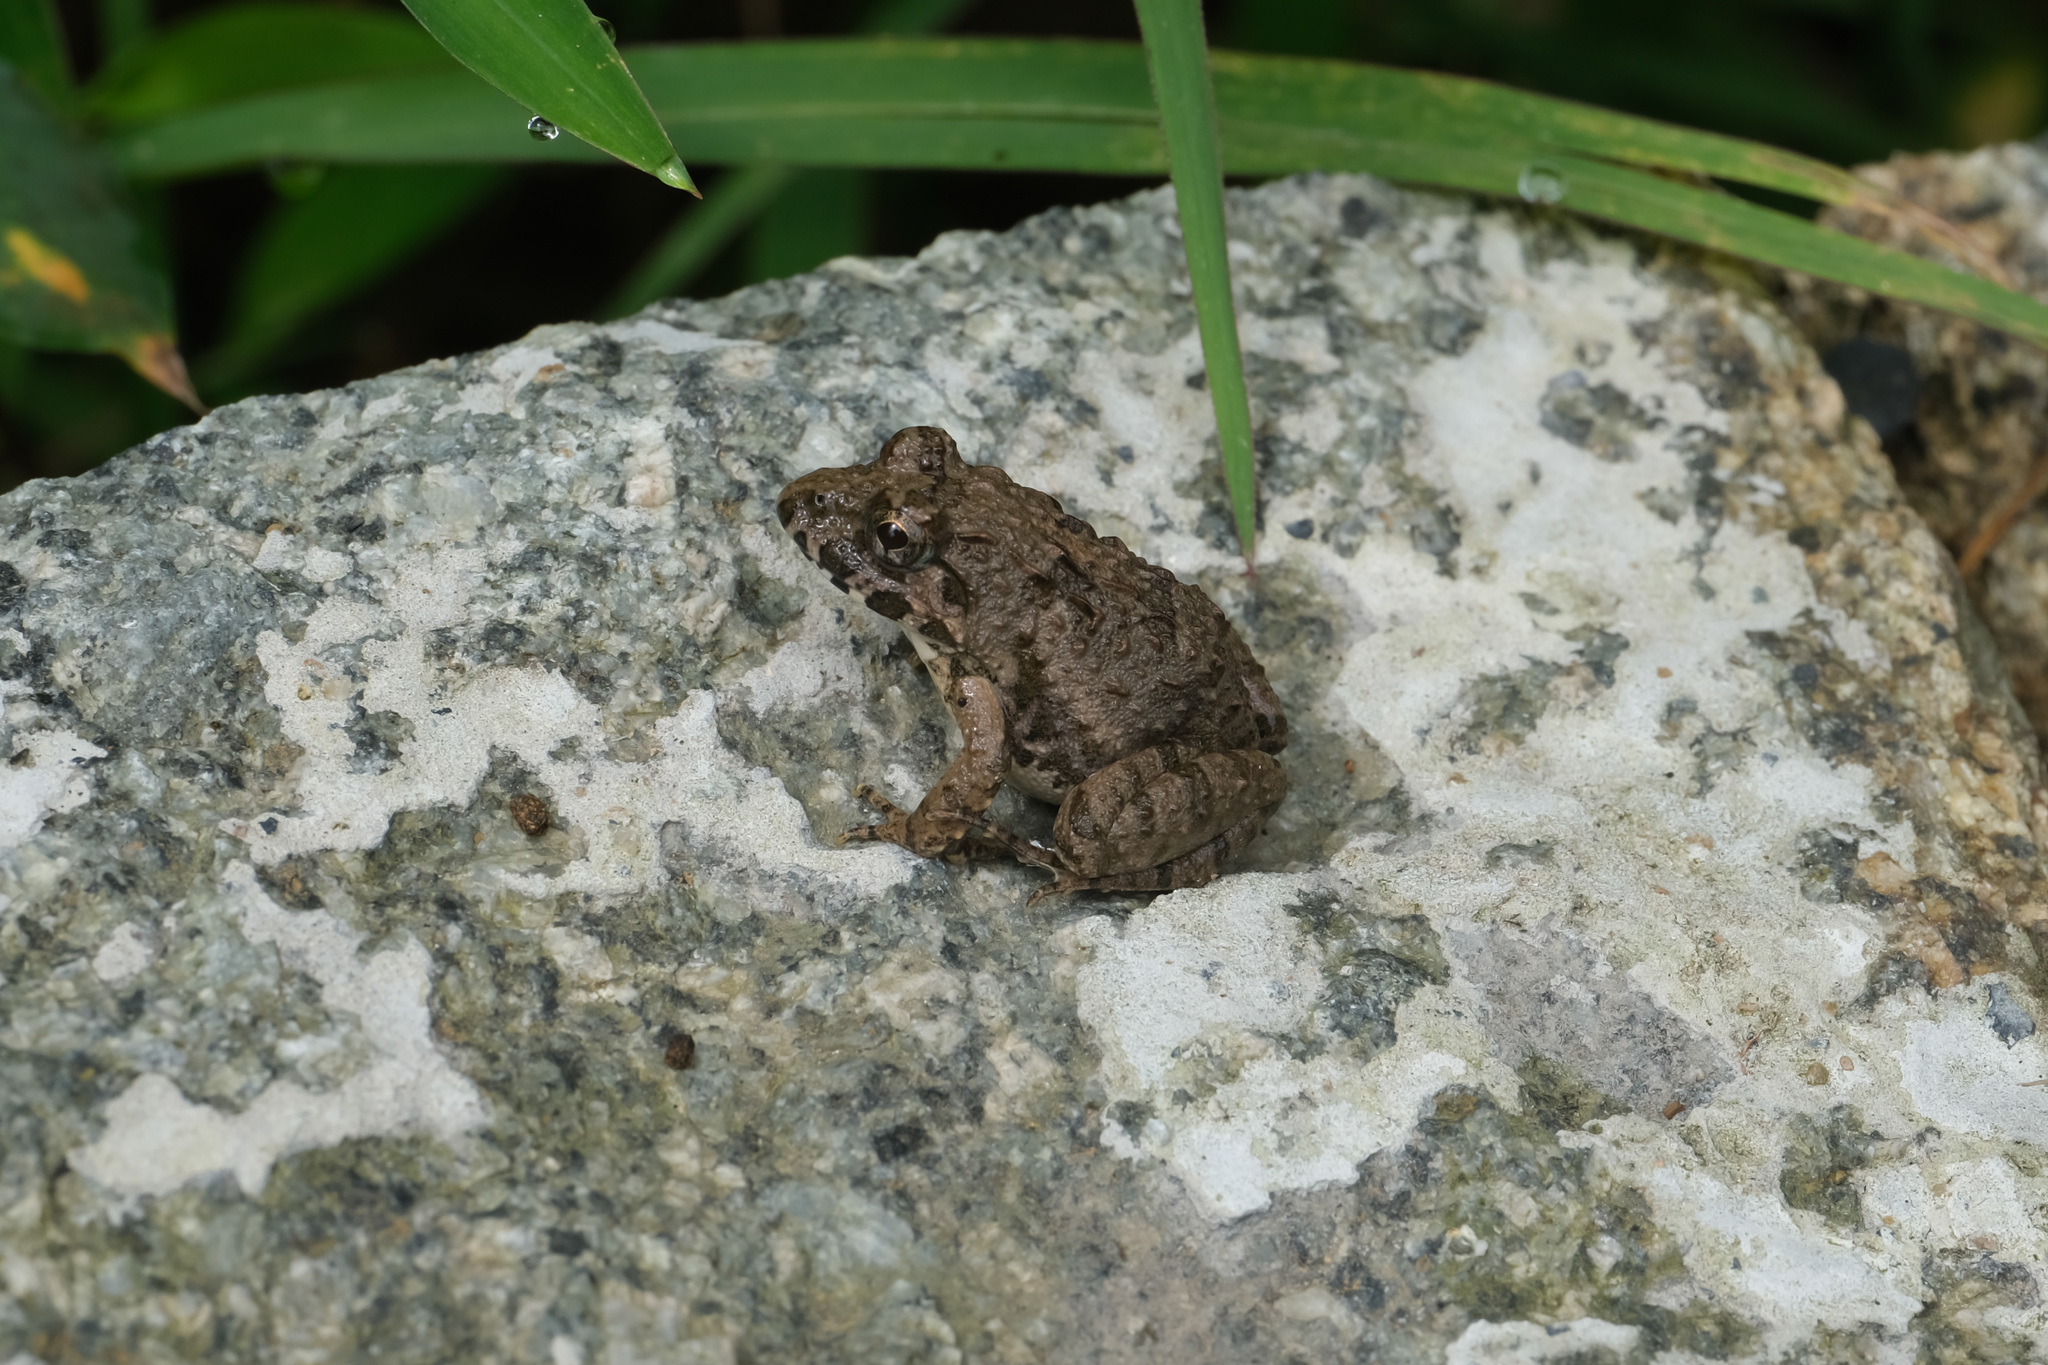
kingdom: Animalia
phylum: Chordata
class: Amphibia
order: Anura
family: Dicroglossidae
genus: Fejervarya
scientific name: Fejervarya multistriata
